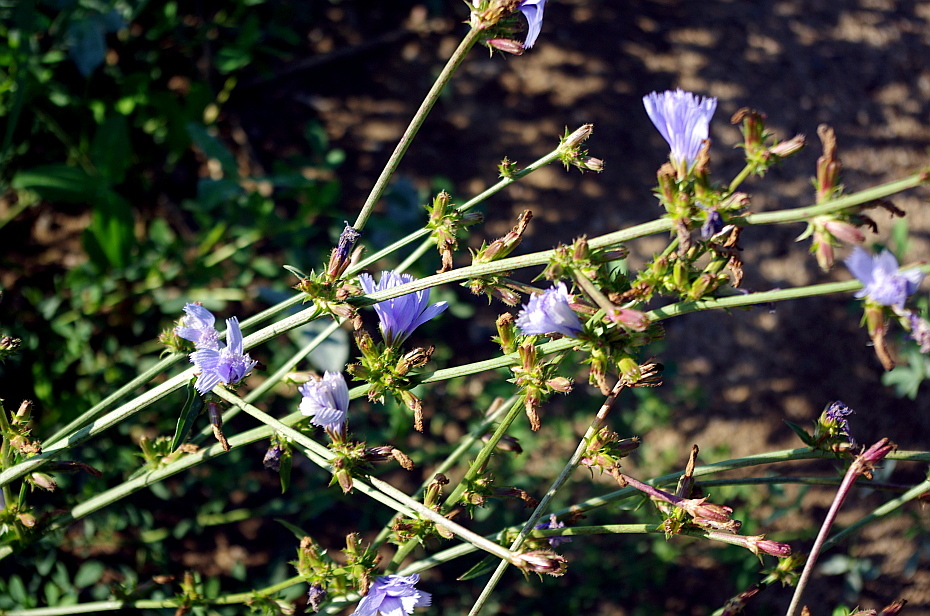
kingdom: Plantae
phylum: Tracheophyta
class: Magnoliopsida
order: Asterales
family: Asteraceae
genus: Cichorium
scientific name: Cichorium intybus
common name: Chicory
